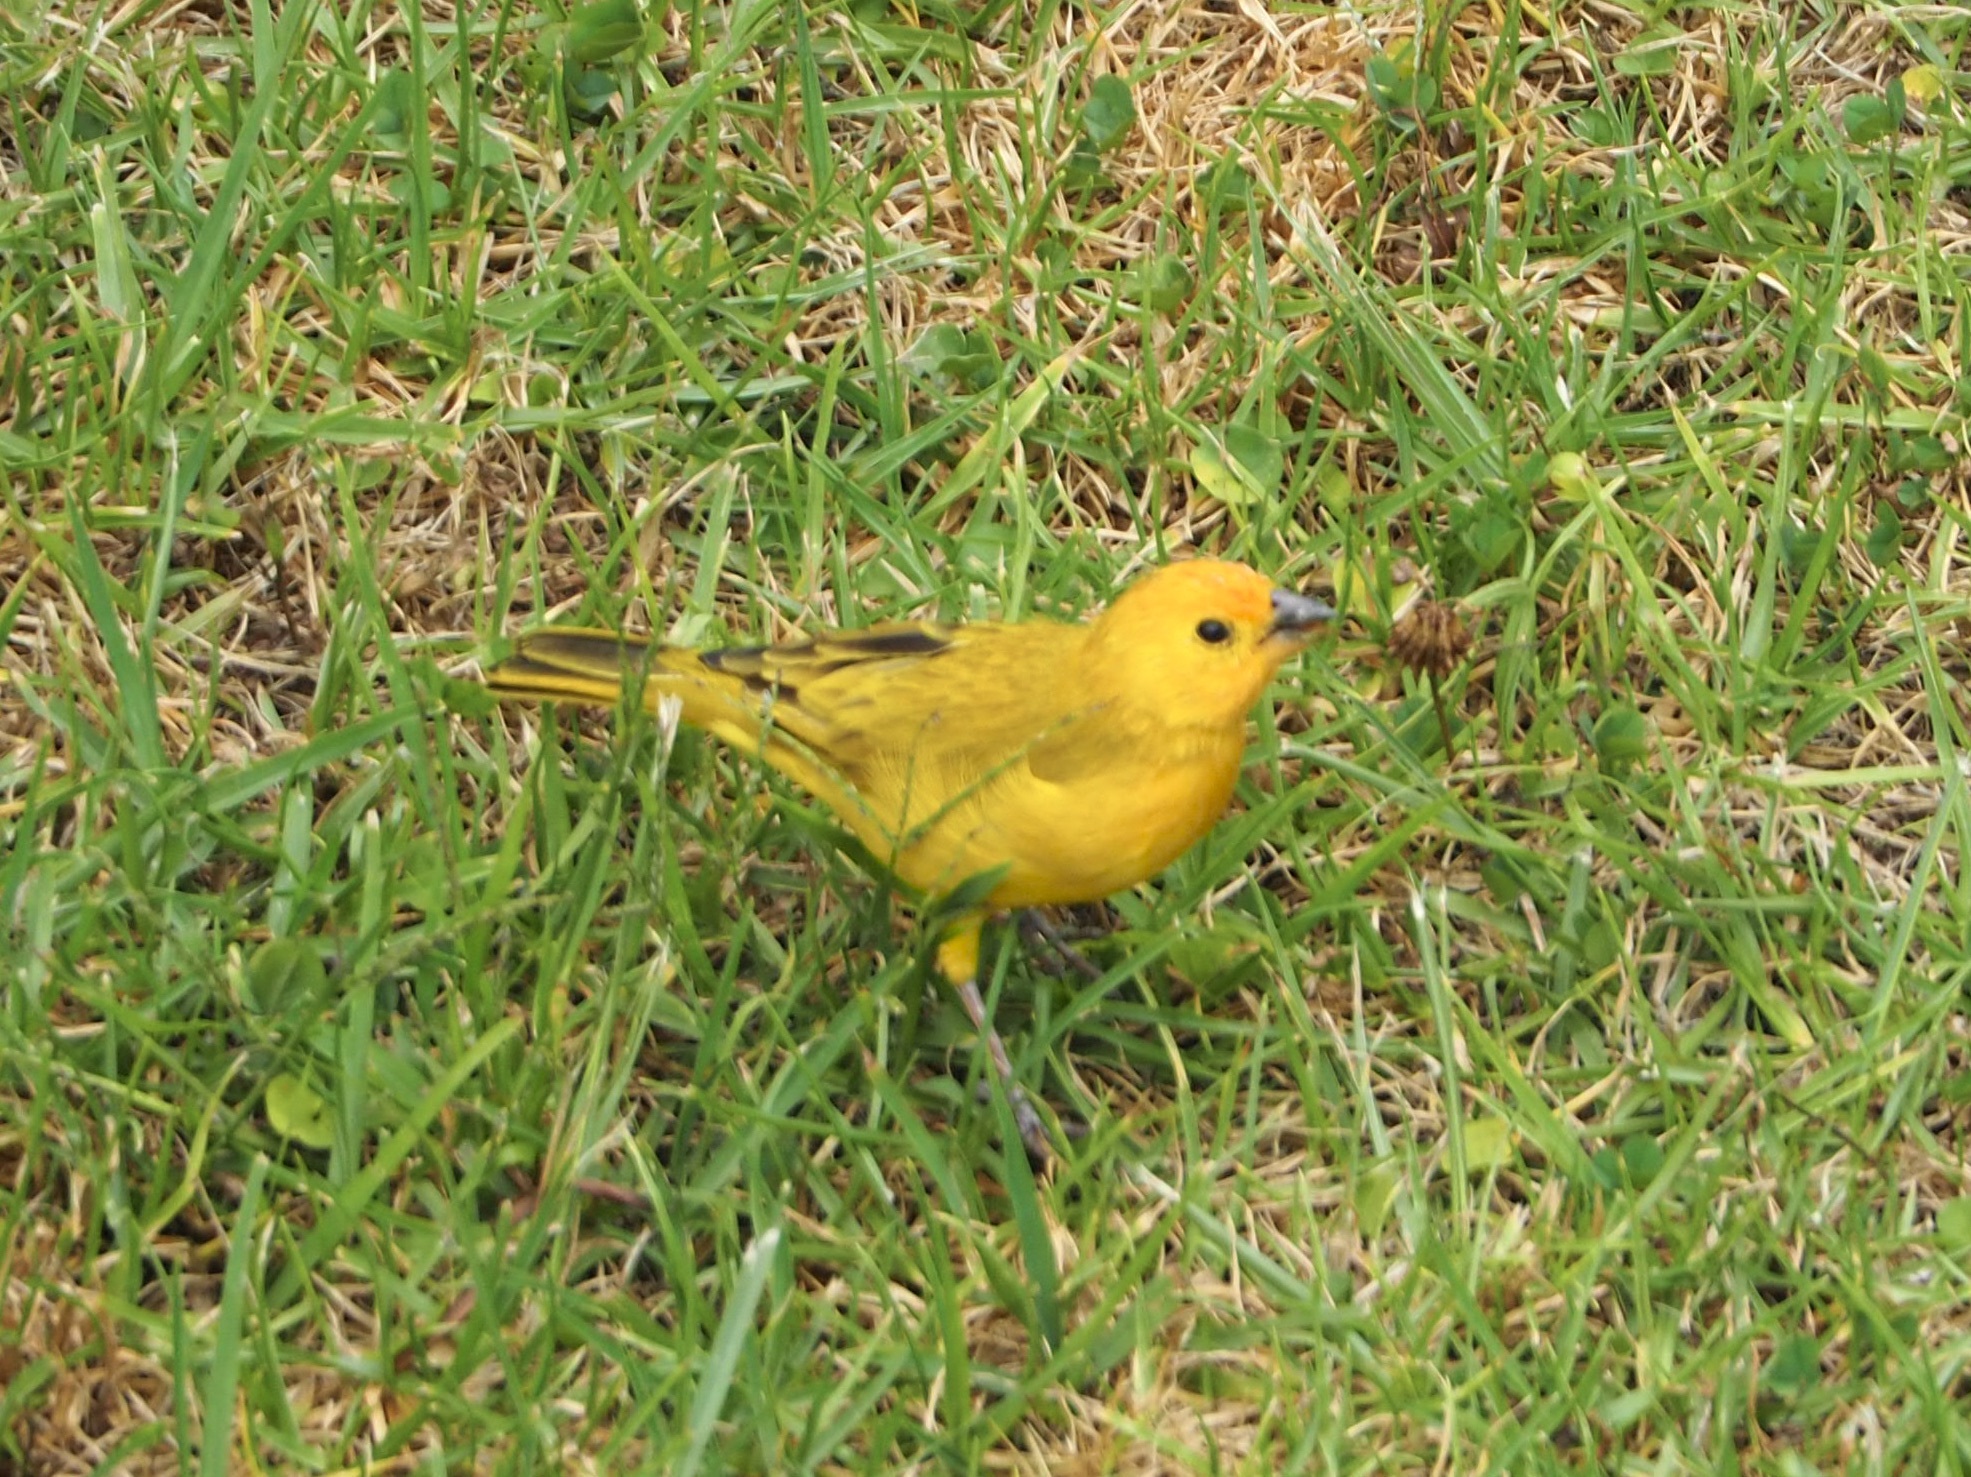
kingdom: Animalia
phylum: Chordata
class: Aves
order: Passeriformes
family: Thraupidae
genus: Sicalis
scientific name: Sicalis flaveola
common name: Saffron finch
